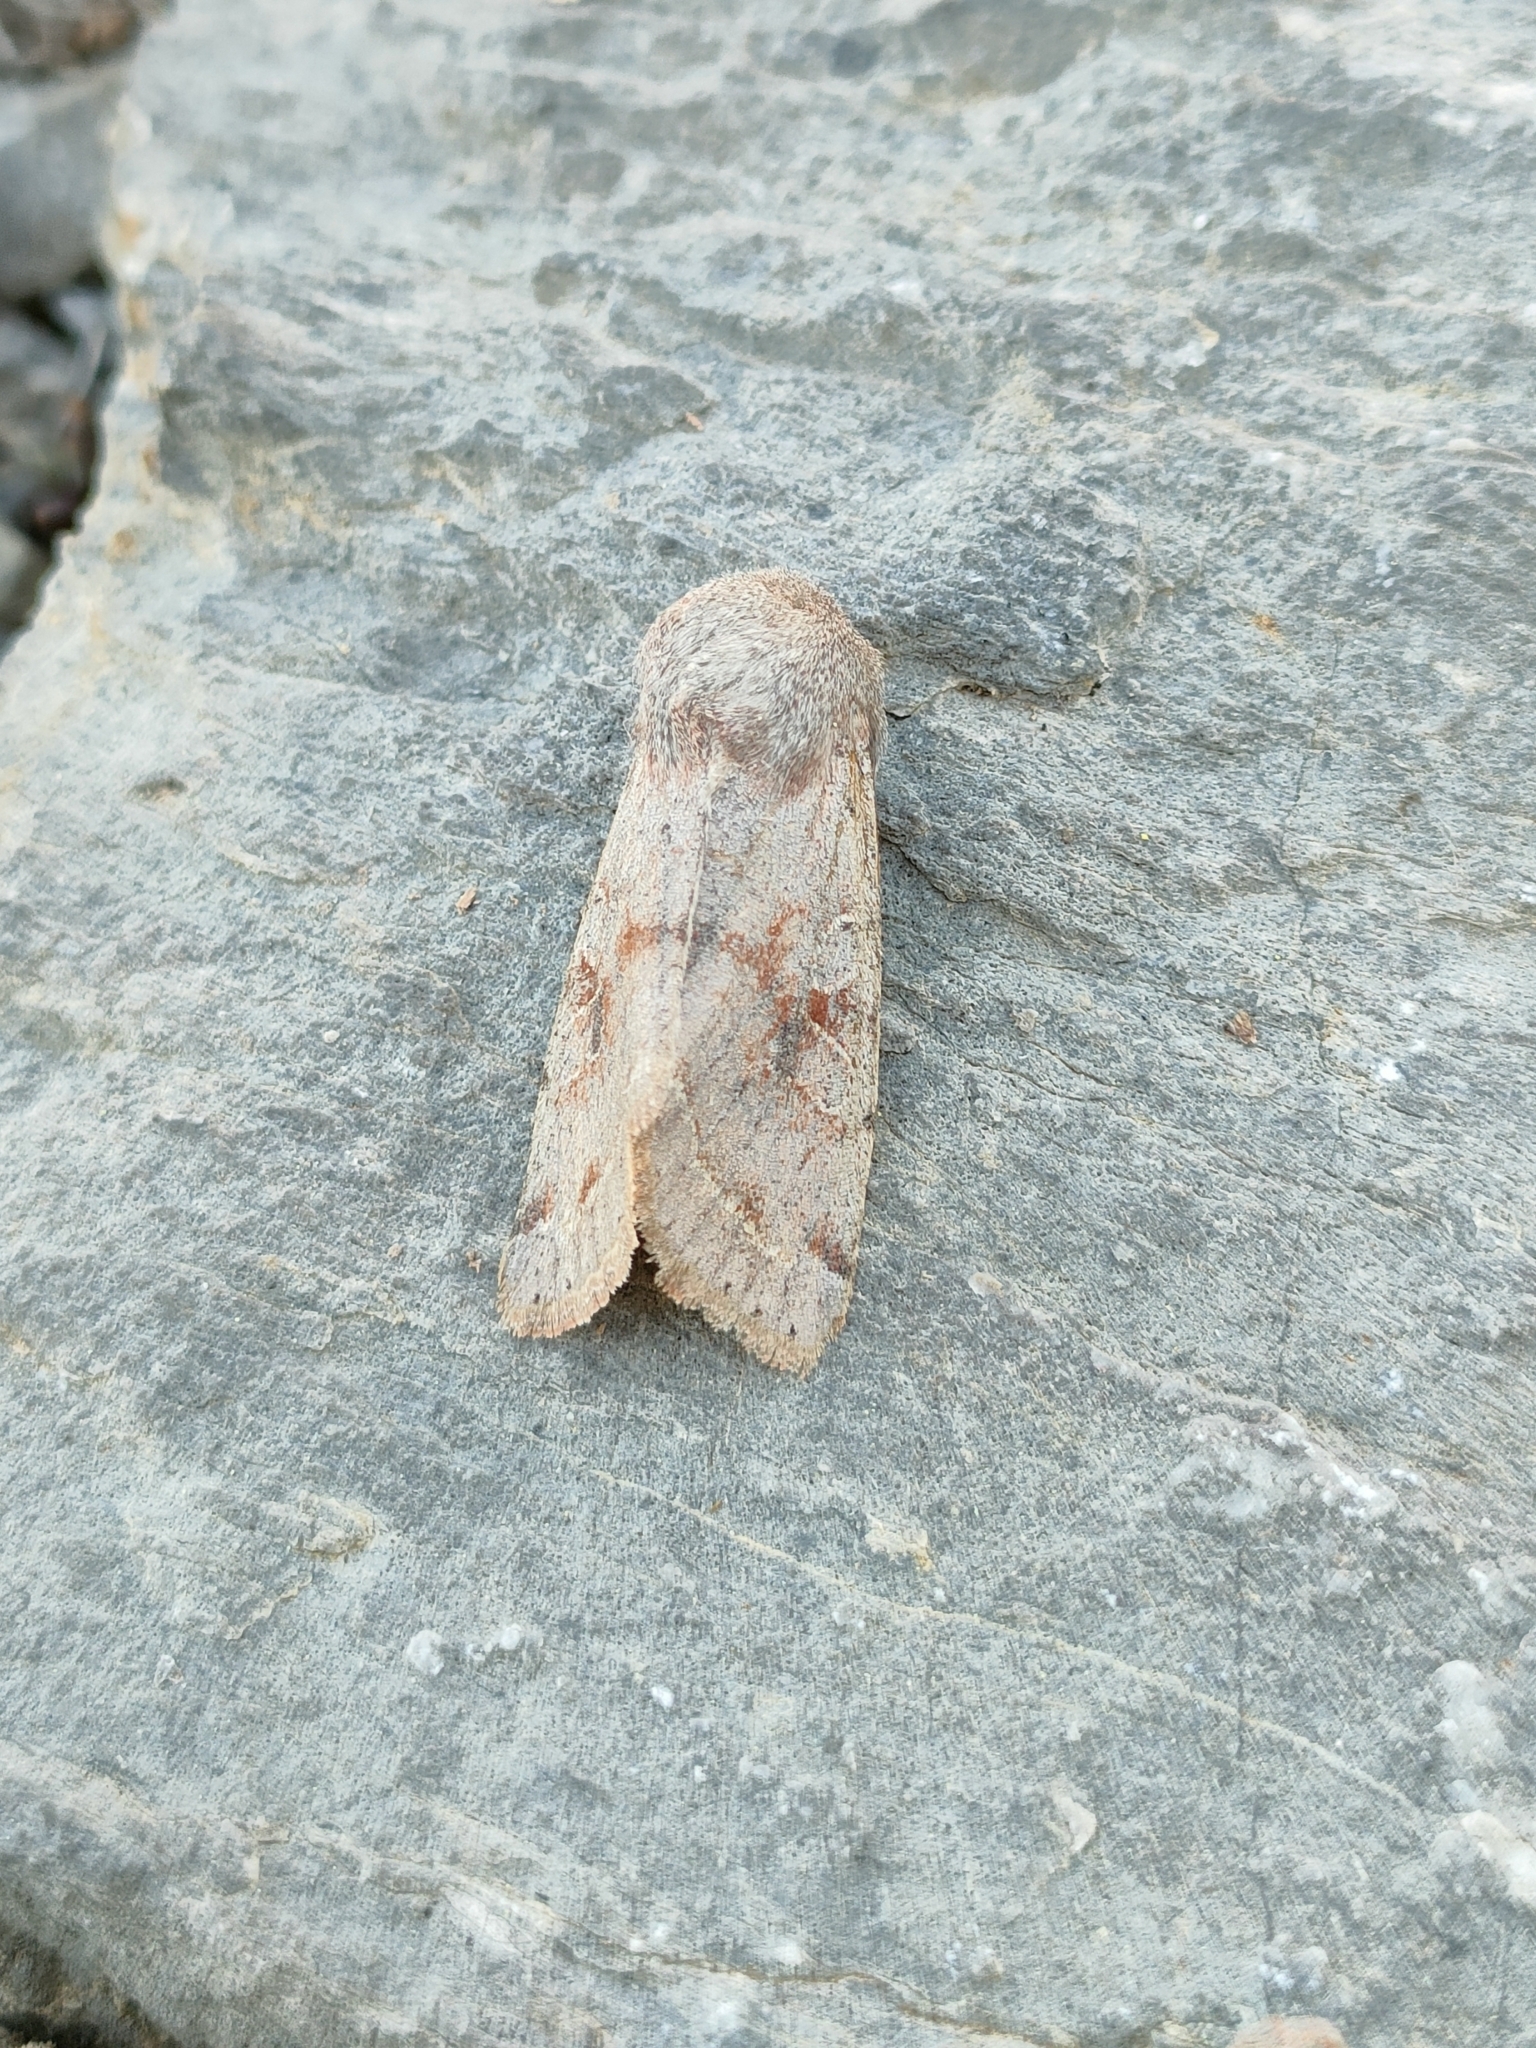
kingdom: Animalia
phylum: Arthropoda
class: Insecta
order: Lepidoptera
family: Noctuidae
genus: Orthosia
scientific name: Orthosia incerta
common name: Clouded drab
